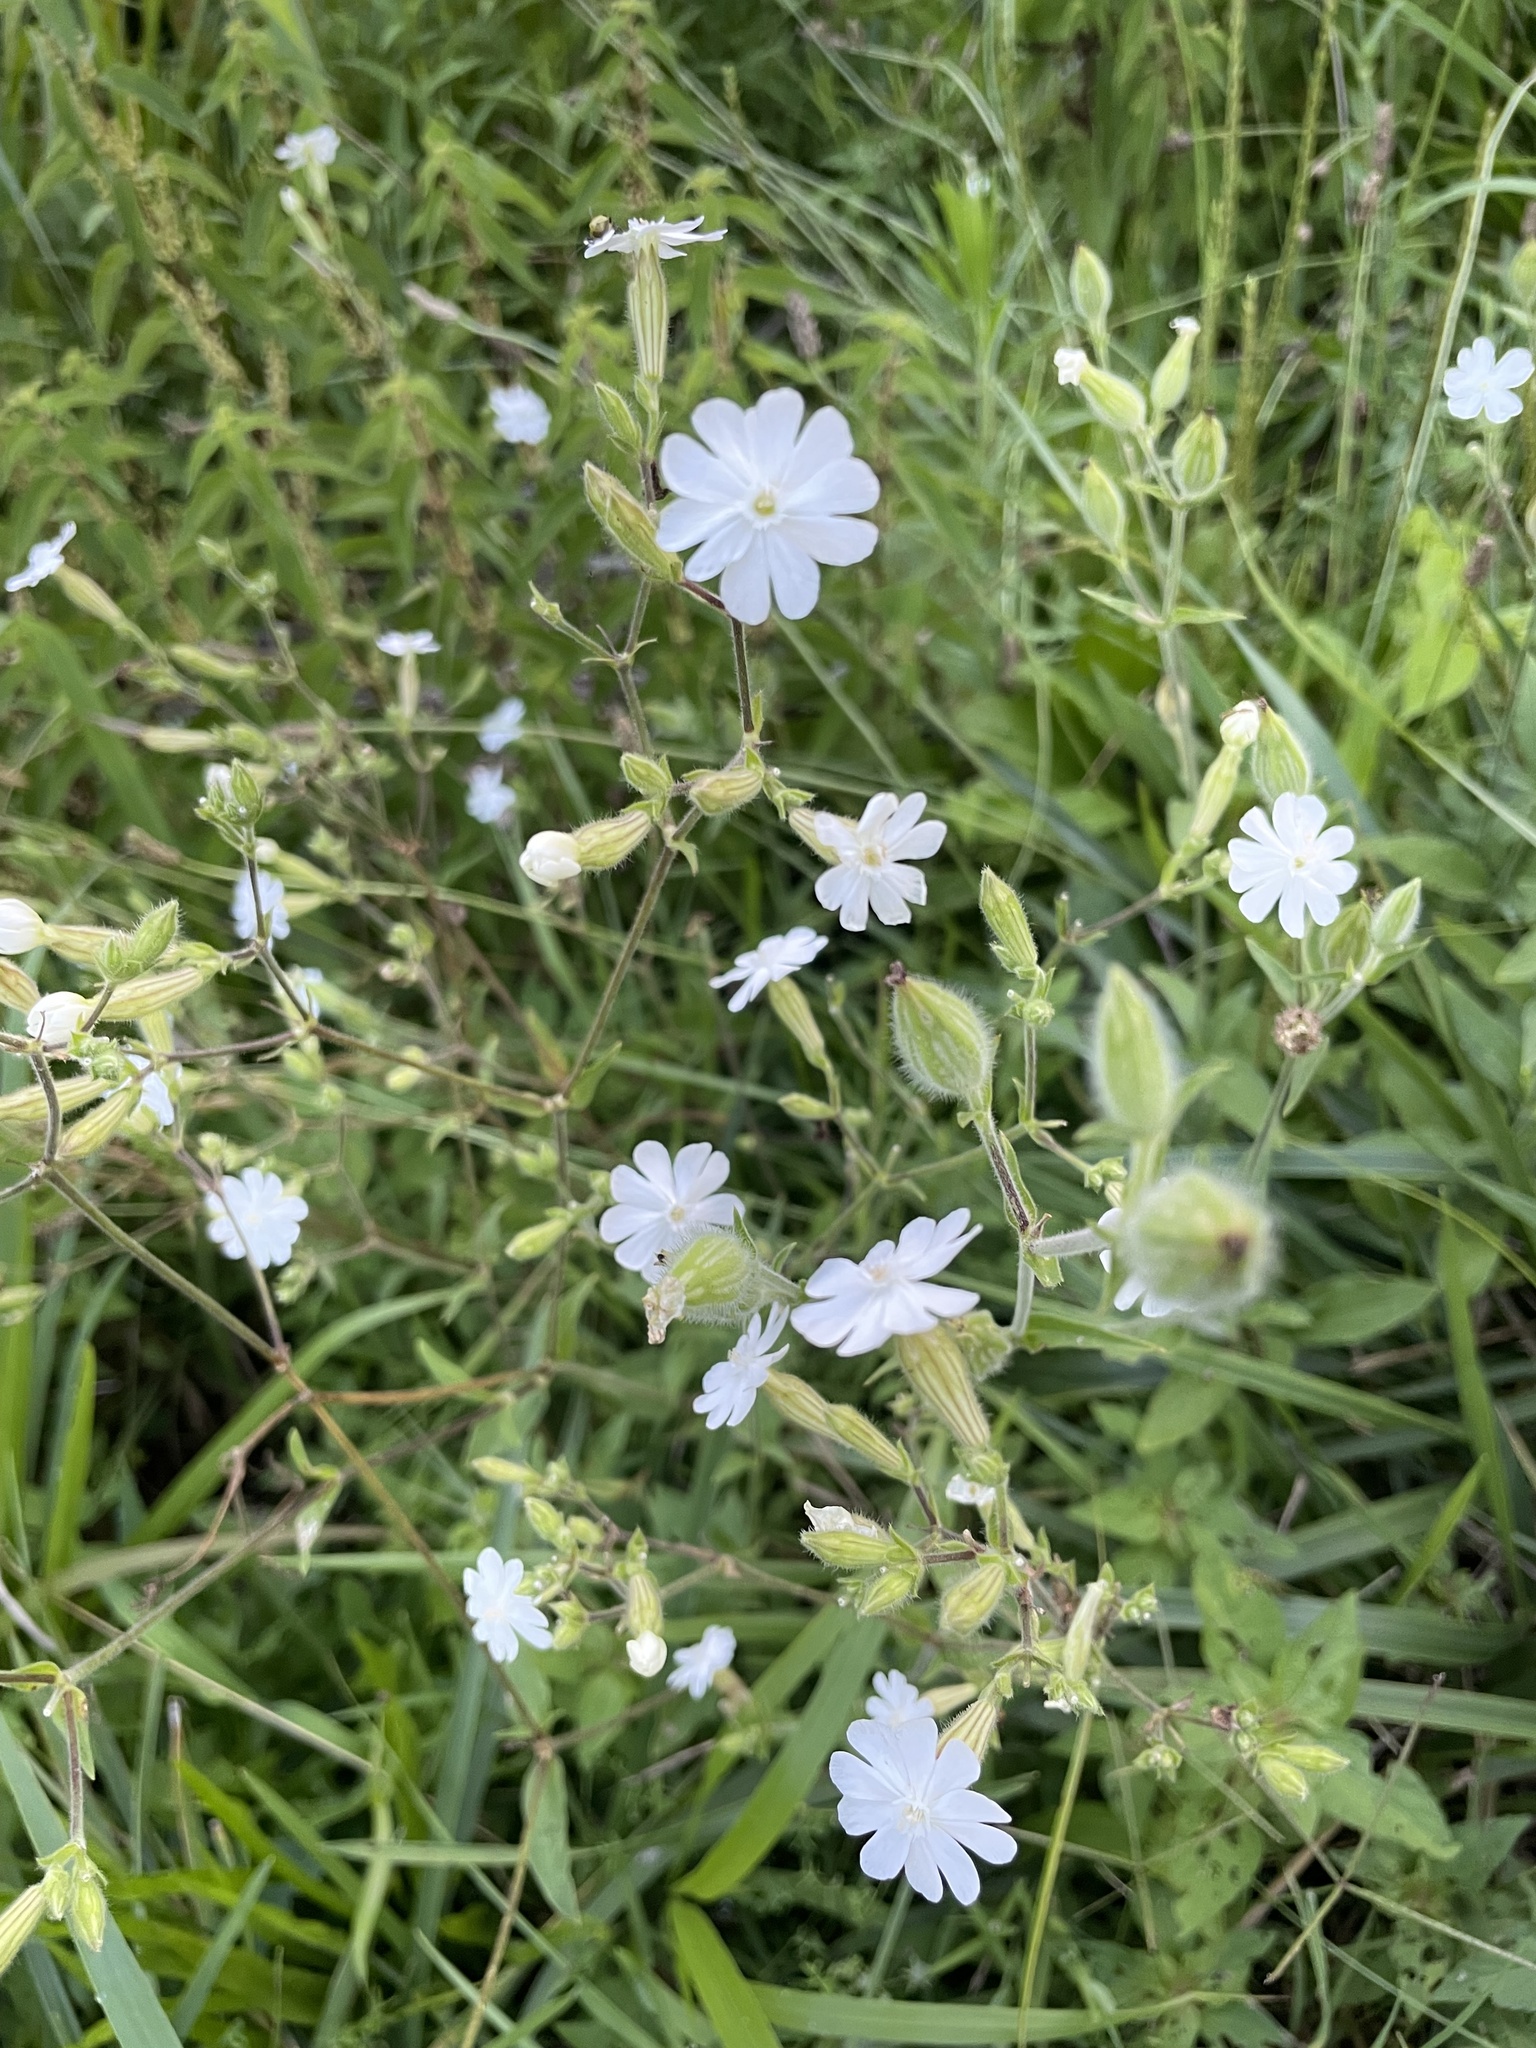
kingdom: Plantae
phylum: Tracheophyta
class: Magnoliopsida
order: Caryophyllales
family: Caryophyllaceae
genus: Silene
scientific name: Silene latifolia
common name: White campion
